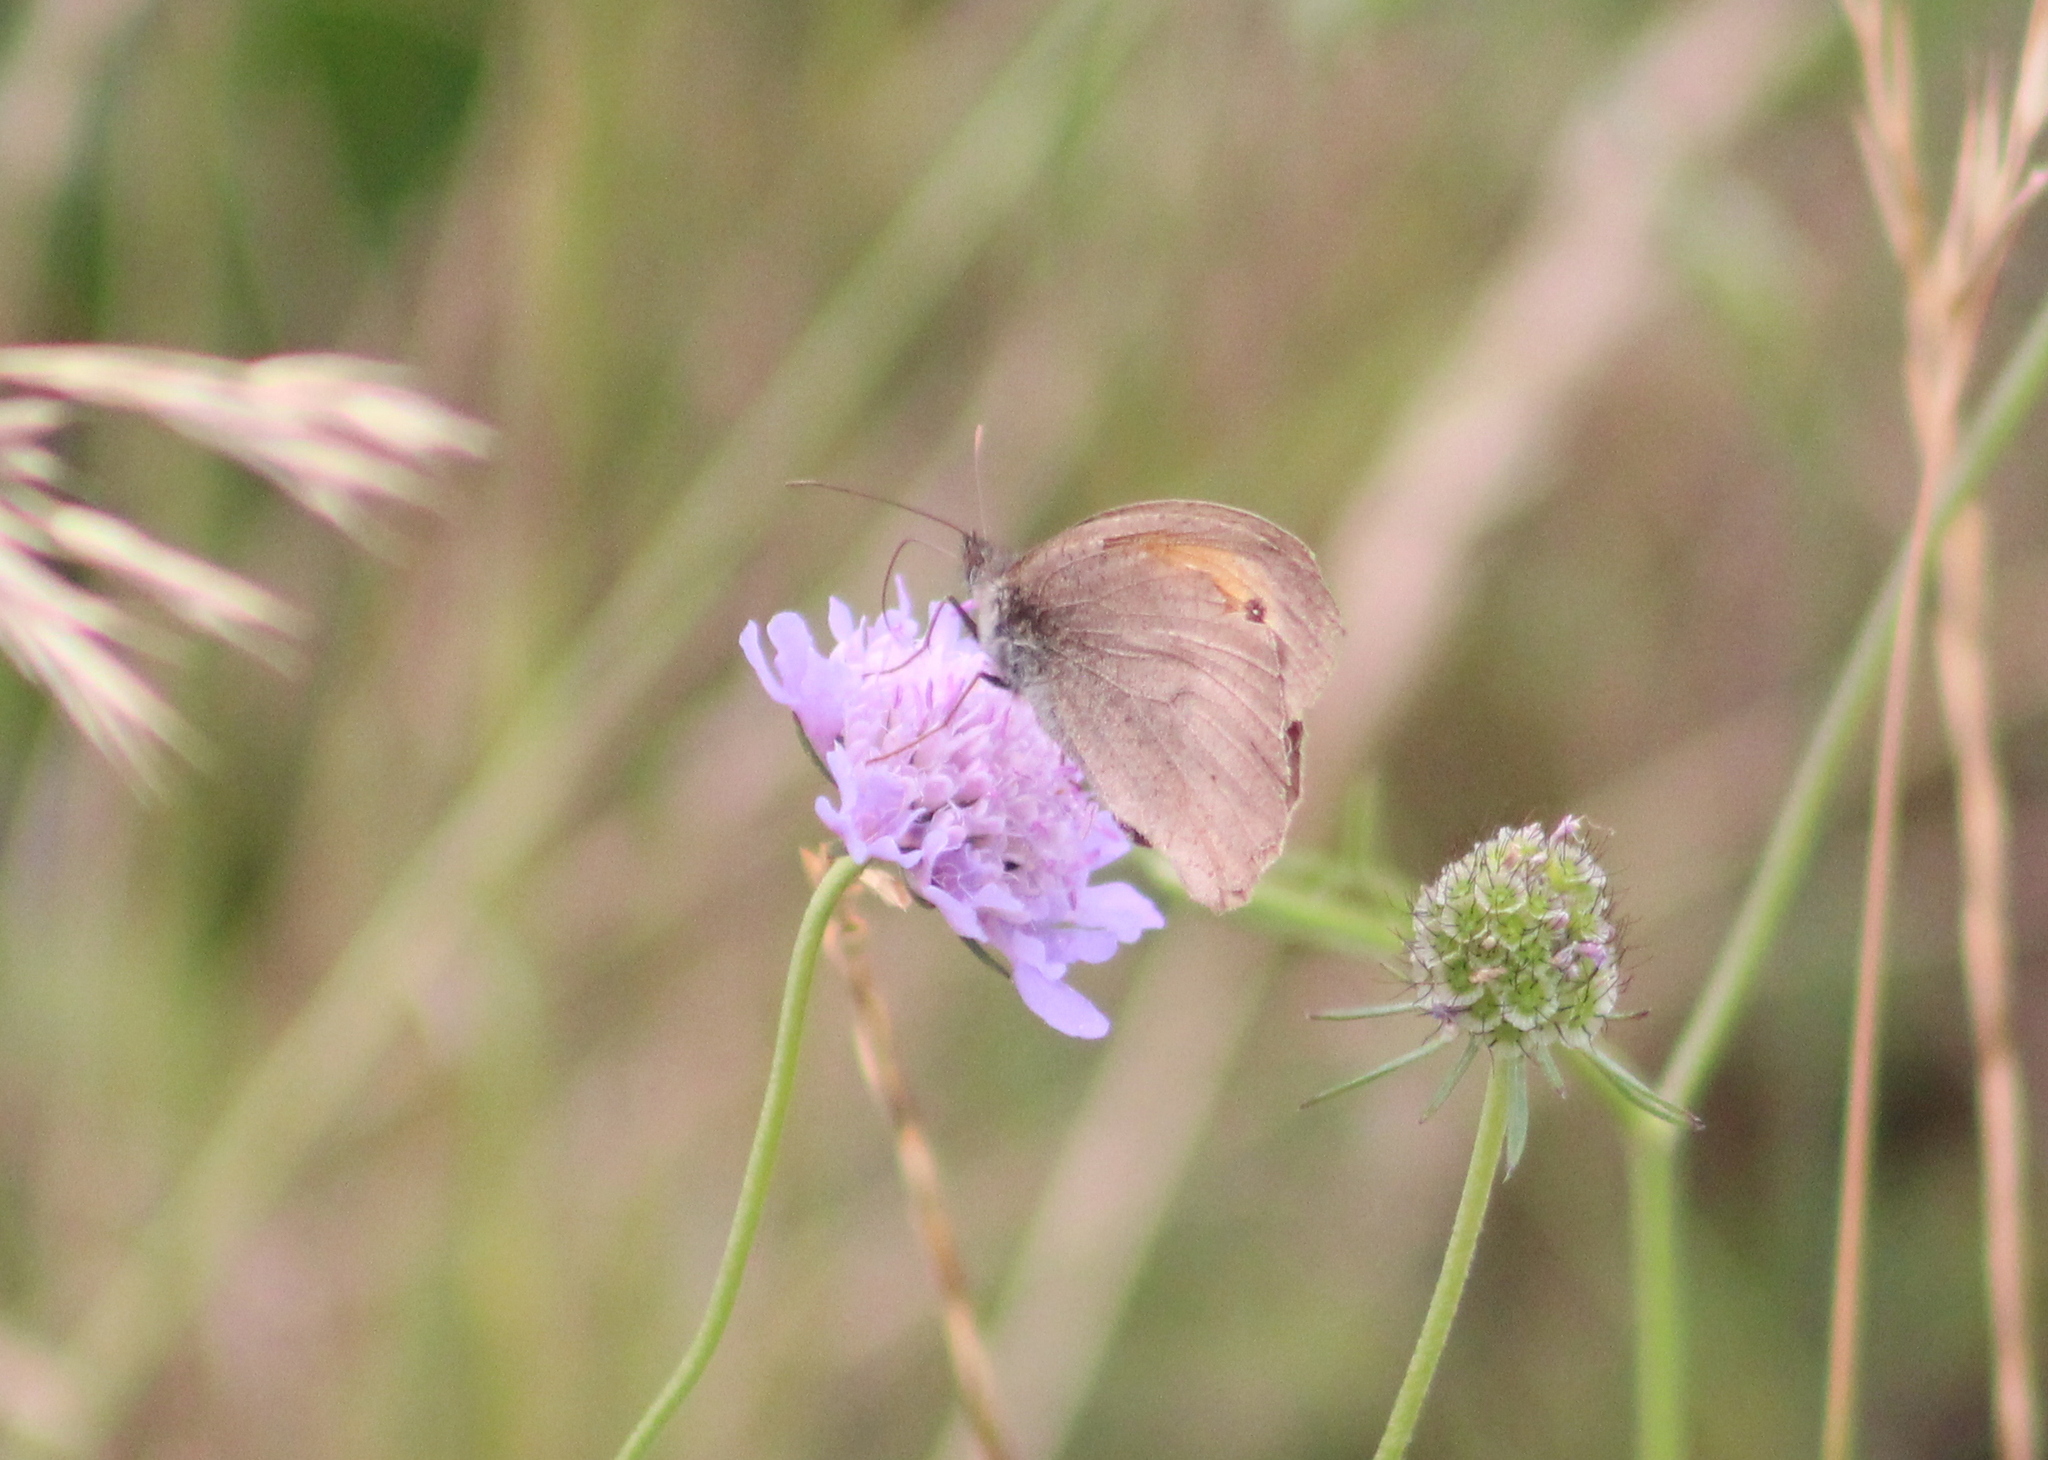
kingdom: Animalia
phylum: Arthropoda
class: Insecta
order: Lepidoptera
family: Nymphalidae
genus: Maniola
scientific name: Maniola jurtina
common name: Meadow brown
